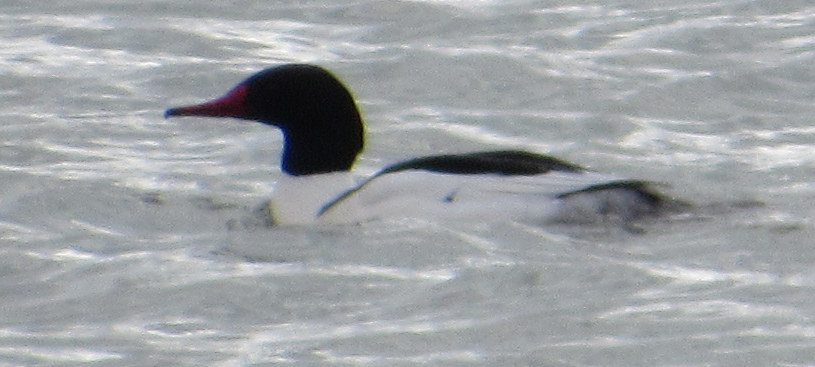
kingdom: Animalia
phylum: Chordata
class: Aves
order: Anseriformes
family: Anatidae
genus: Mergus
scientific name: Mergus merganser
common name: Common merganser
